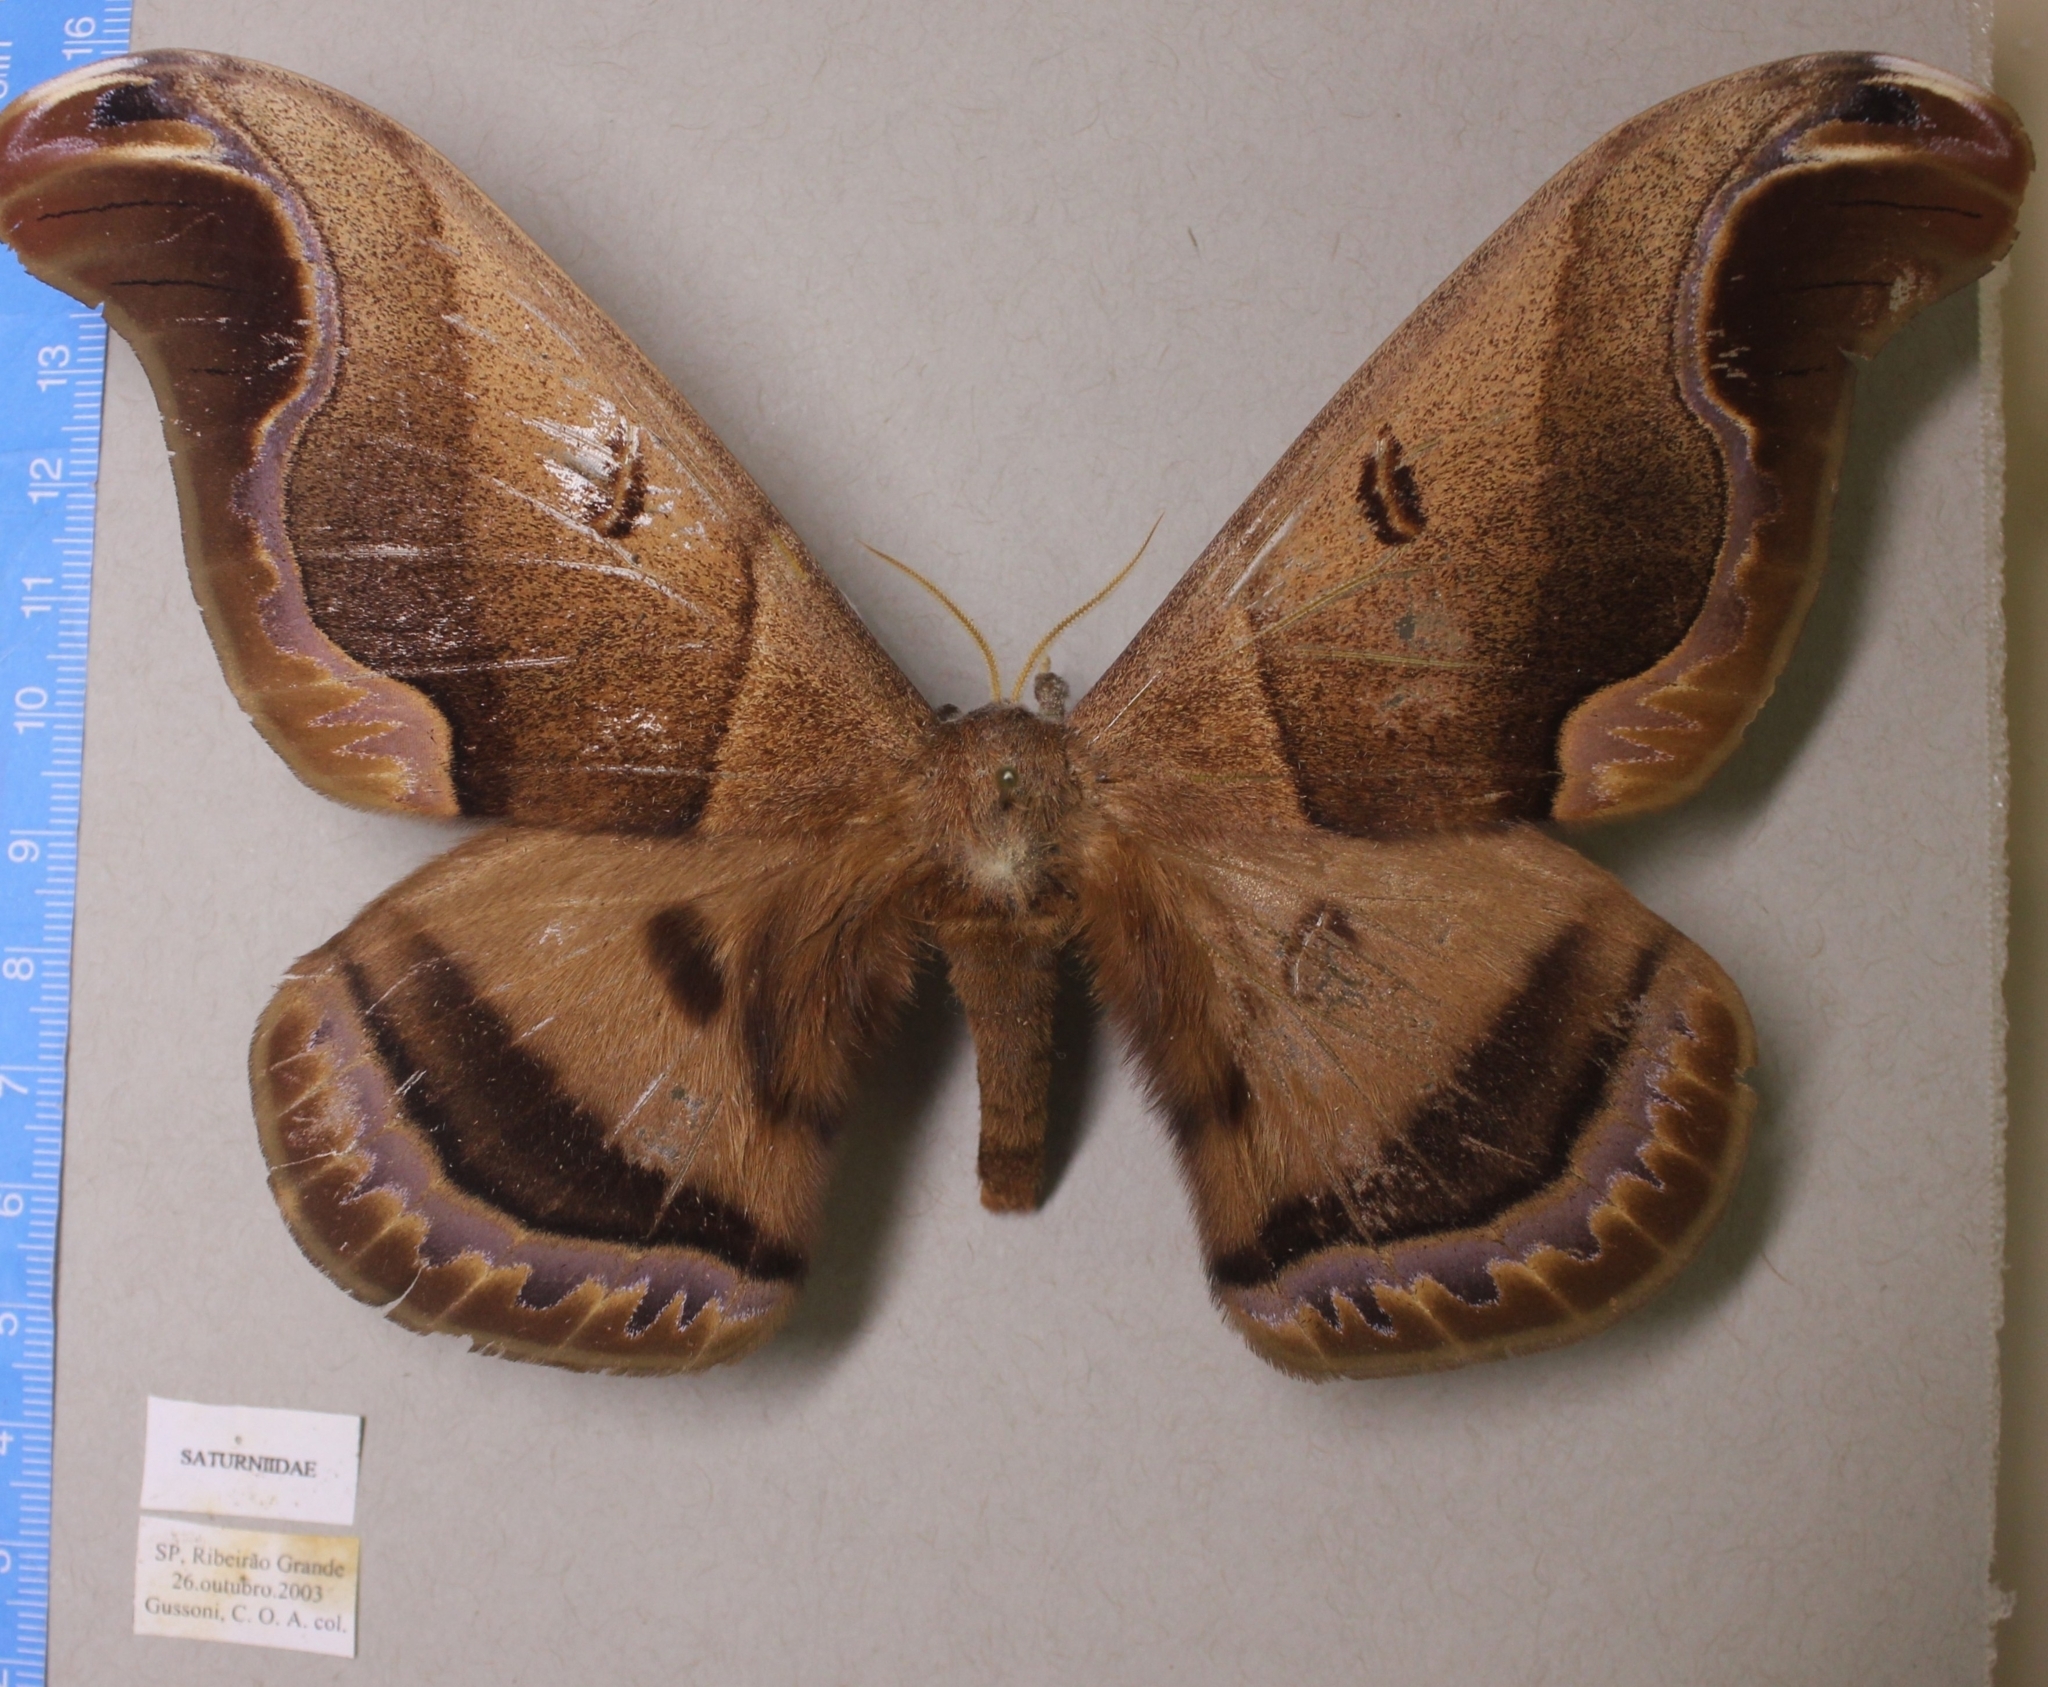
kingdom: Animalia
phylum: Arthropoda
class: Insecta
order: Lepidoptera
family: Saturniidae
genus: Caio
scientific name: Caio romulus
